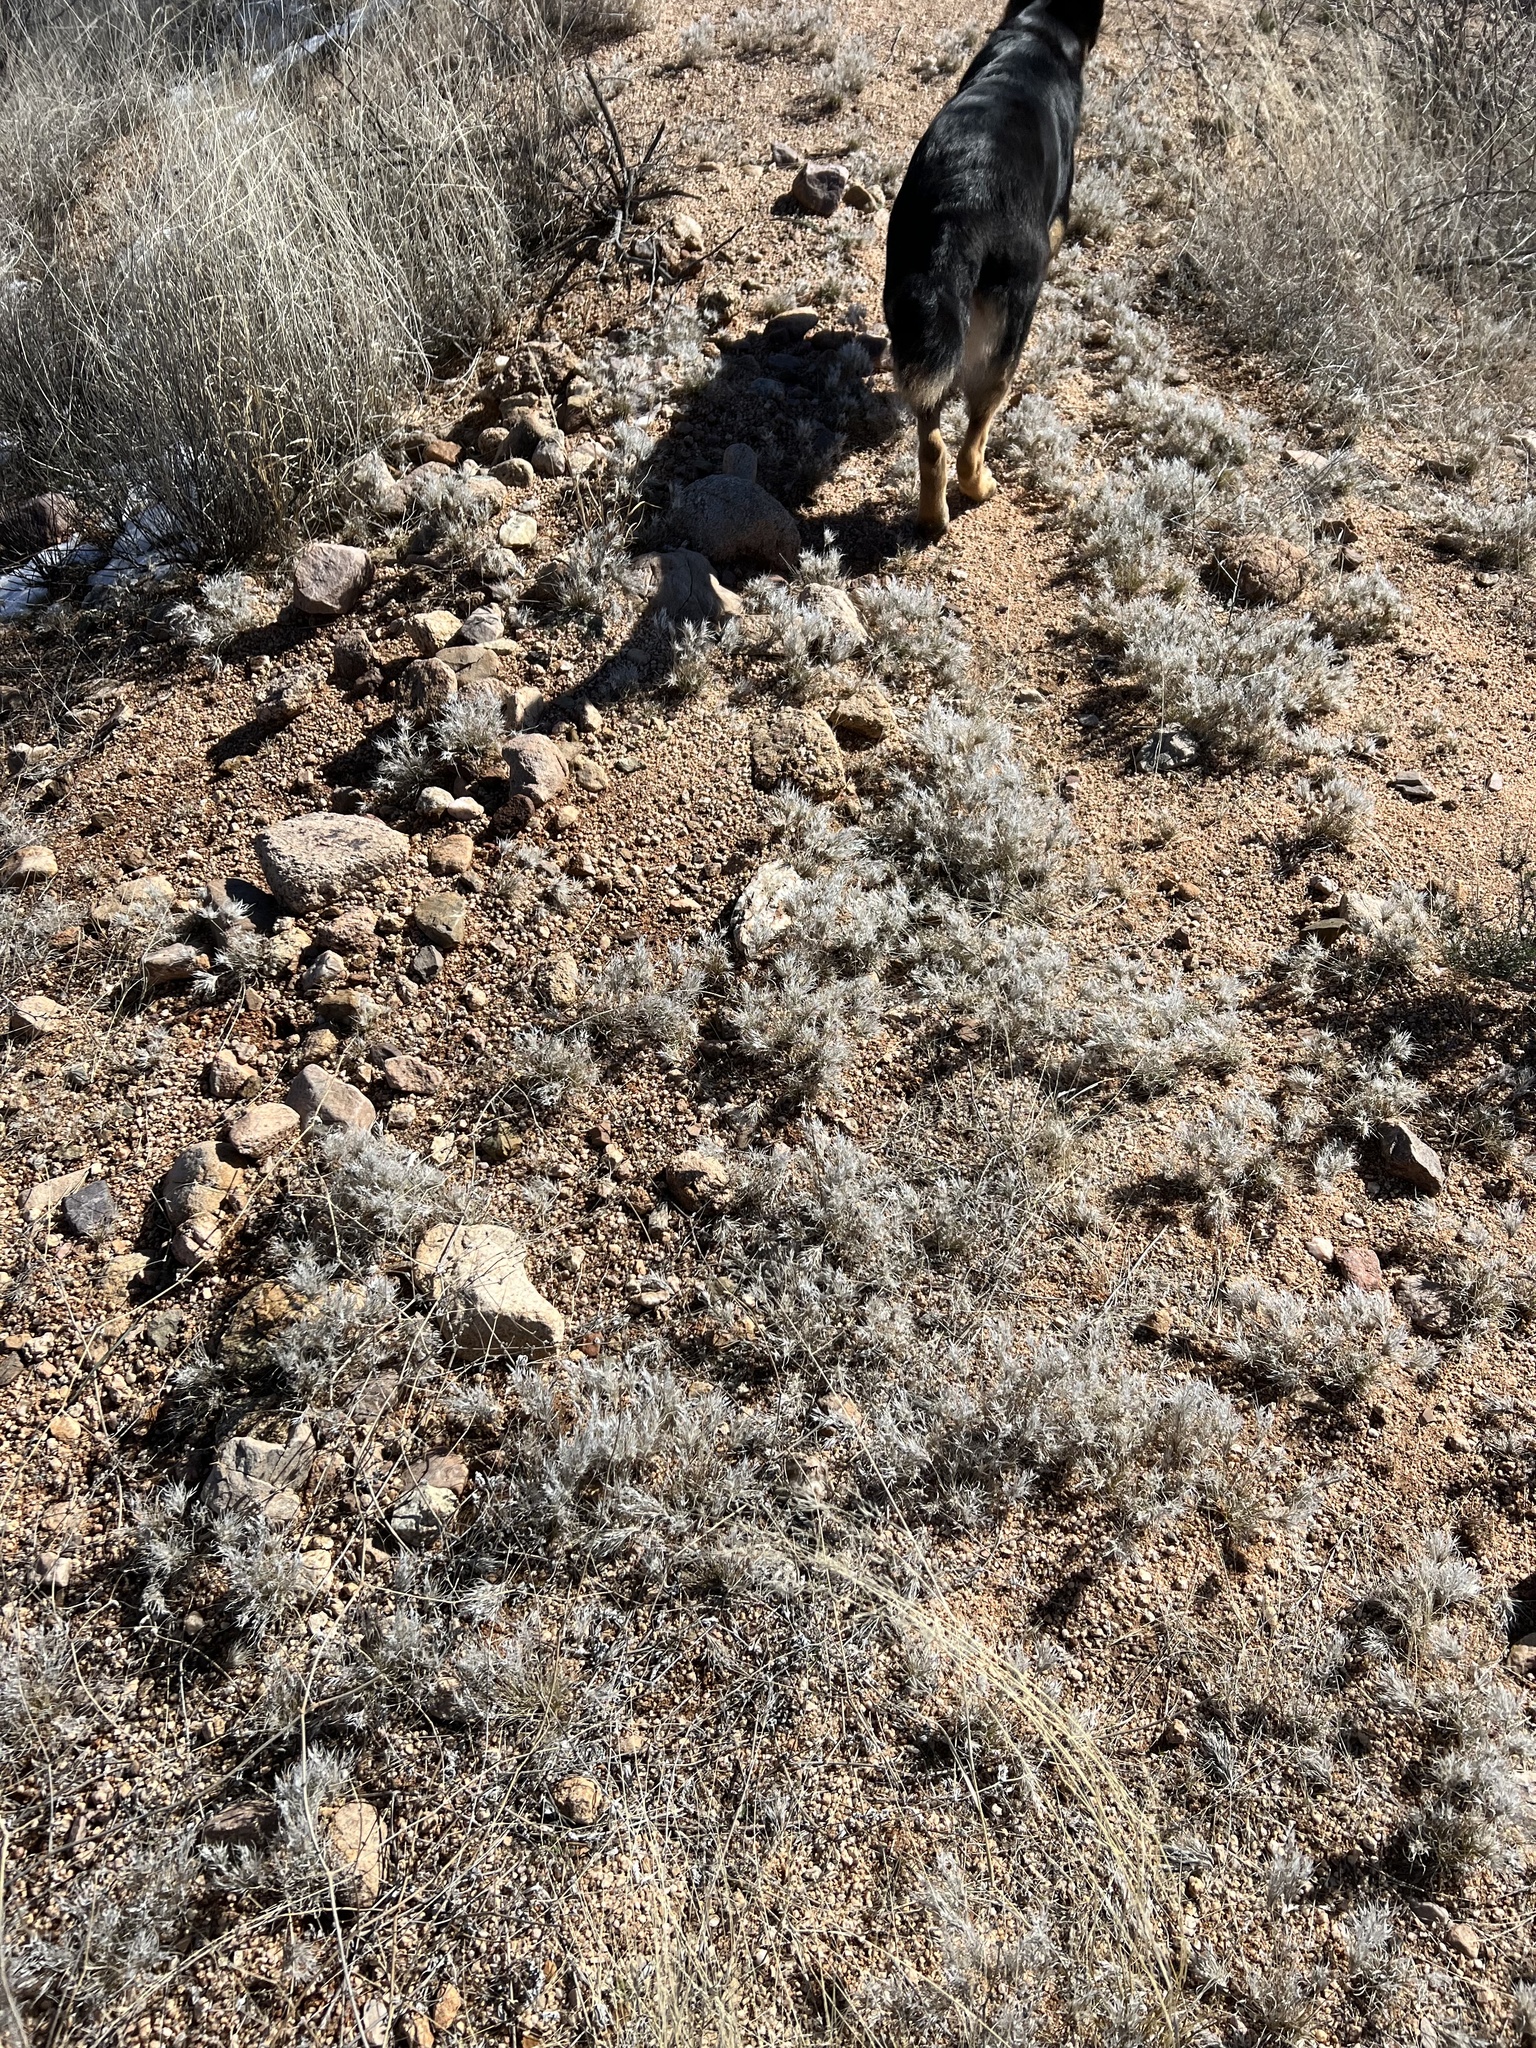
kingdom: Plantae
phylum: Tracheophyta
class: Liliopsida
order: Poales
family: Poaceae
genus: Dasyochloa
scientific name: Dasyochloa pulchella
